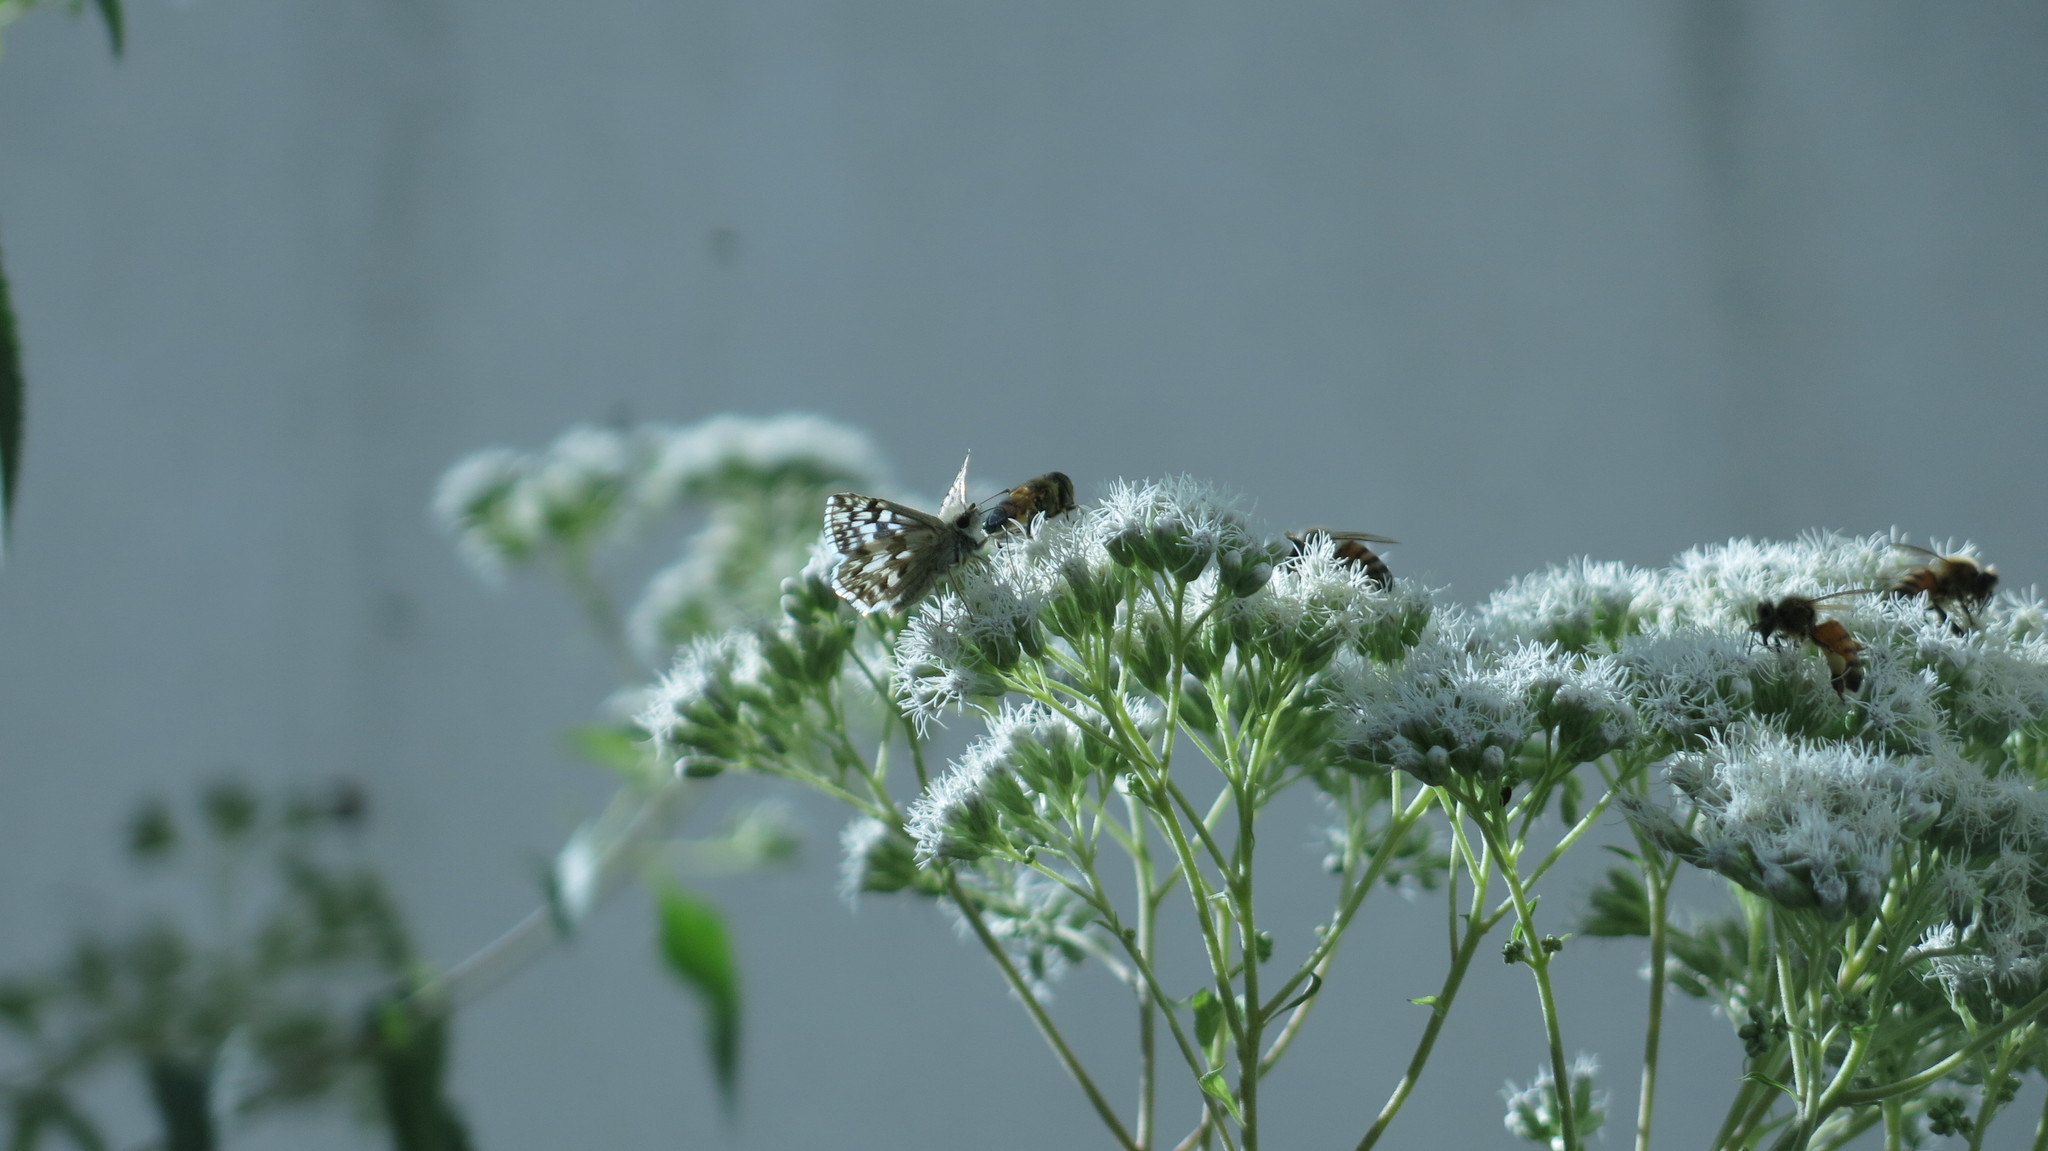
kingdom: Animalia
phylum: Arthropoda
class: Insecta
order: Lepidoptera
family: Hesperiidae
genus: Heliopetes
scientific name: Heliopetes americanus
